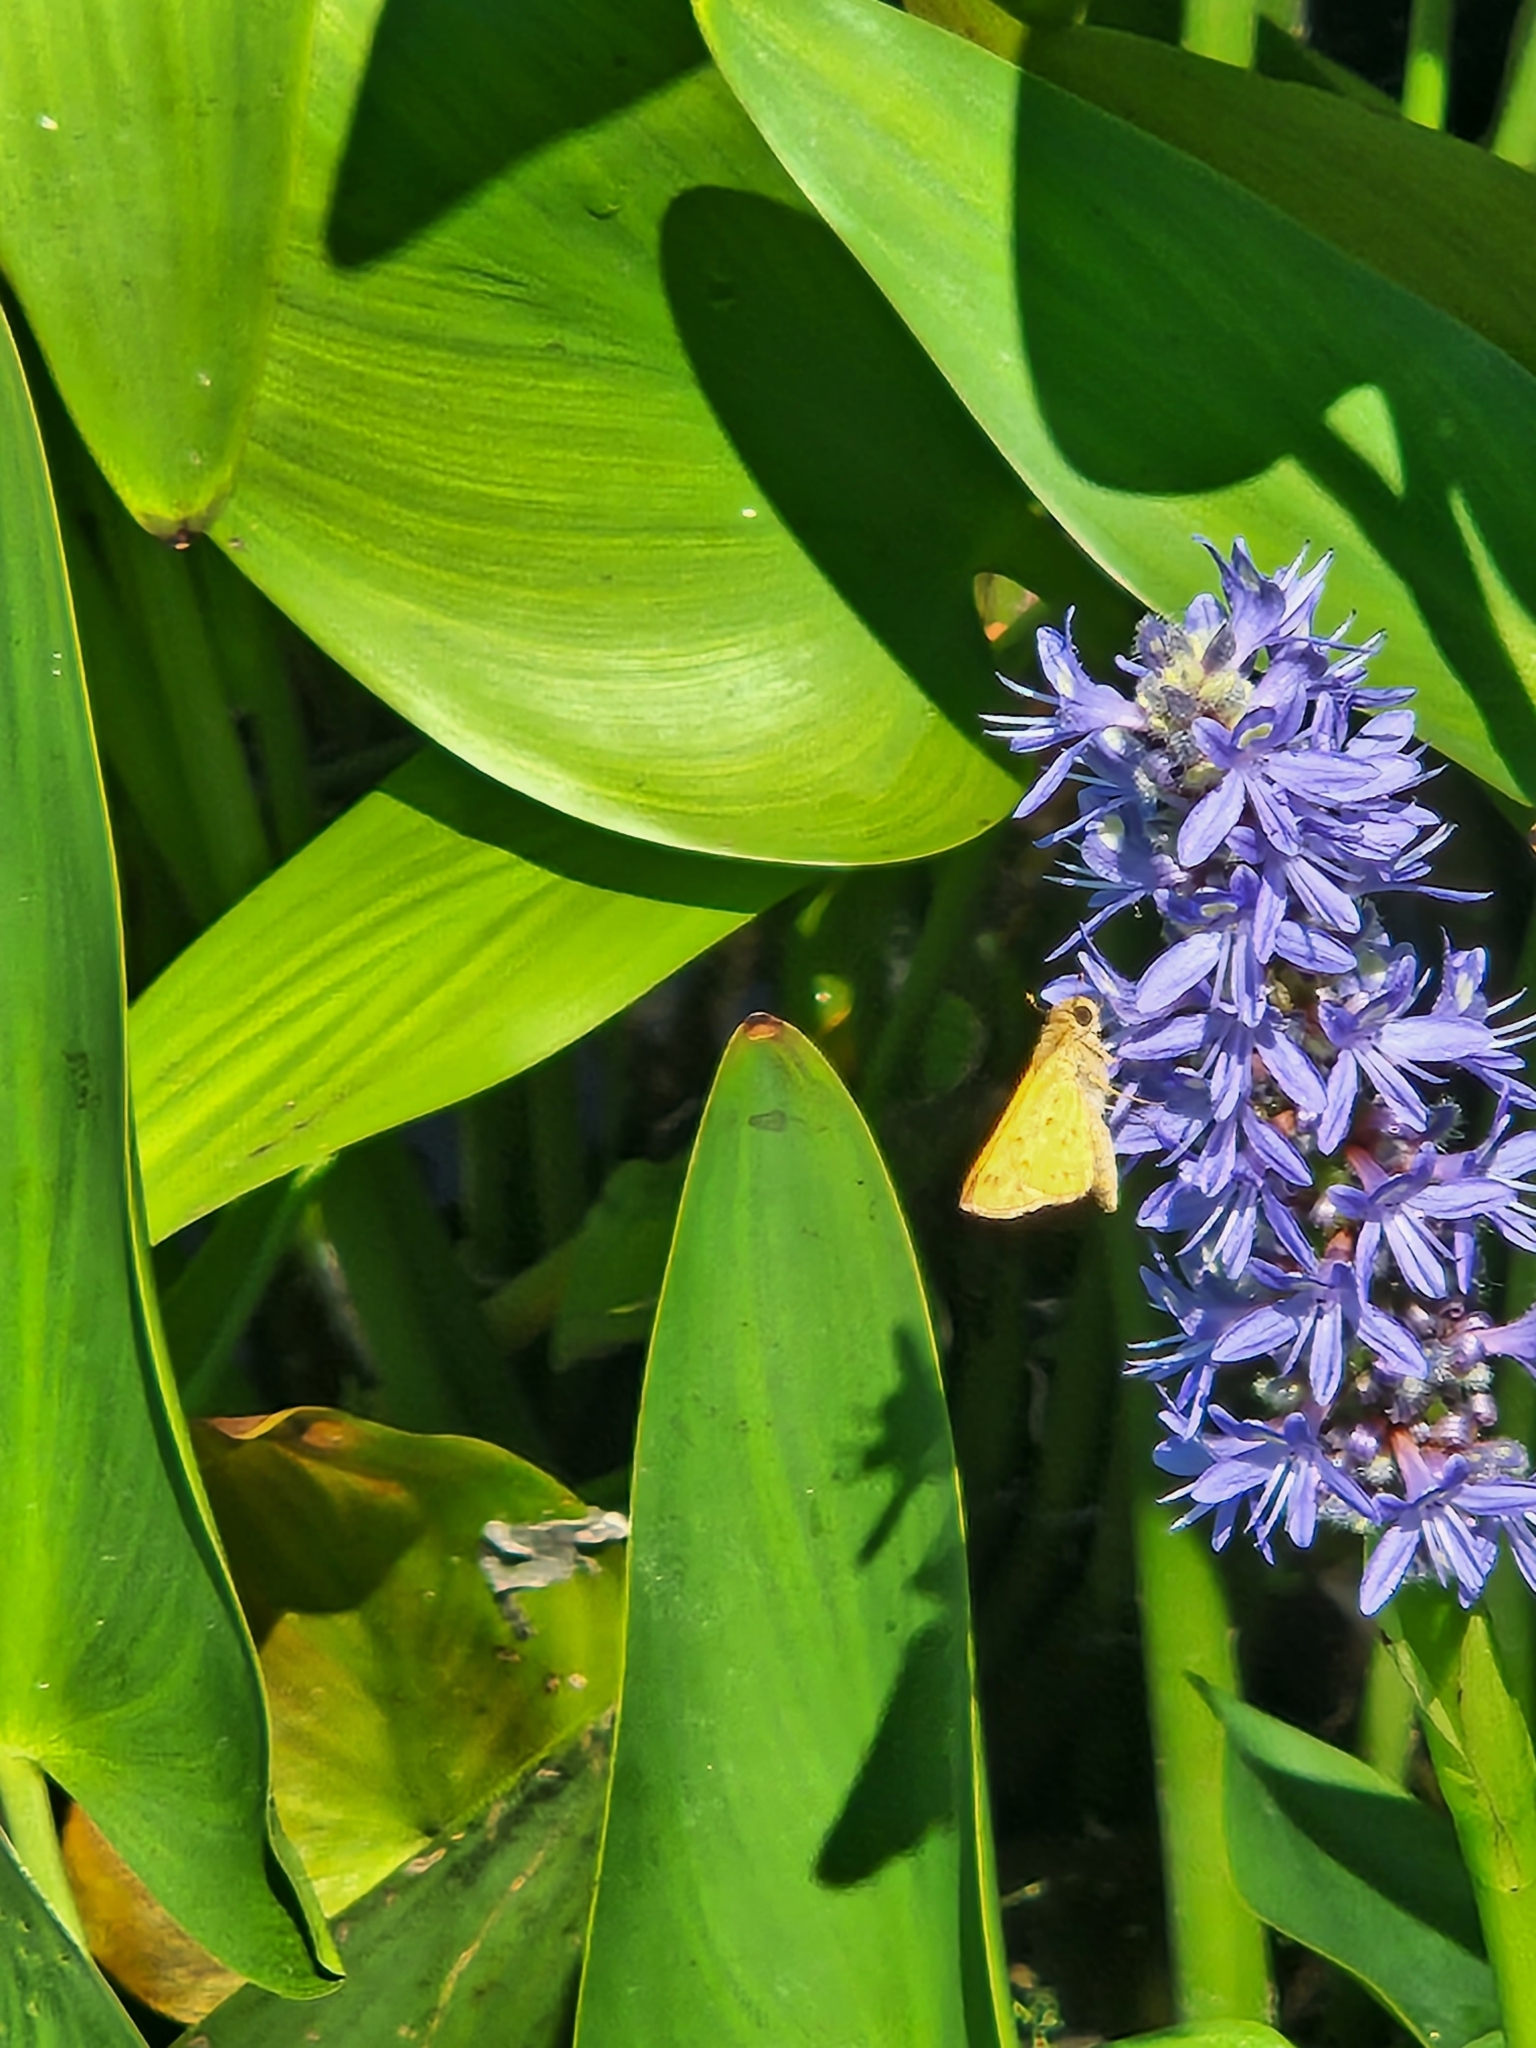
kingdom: Animalia
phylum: Arthropoda
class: Insecta
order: Lepidoptera
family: Hesperiidae
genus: Hylephila
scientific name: Hylephila phyleus
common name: Fiery skipper
